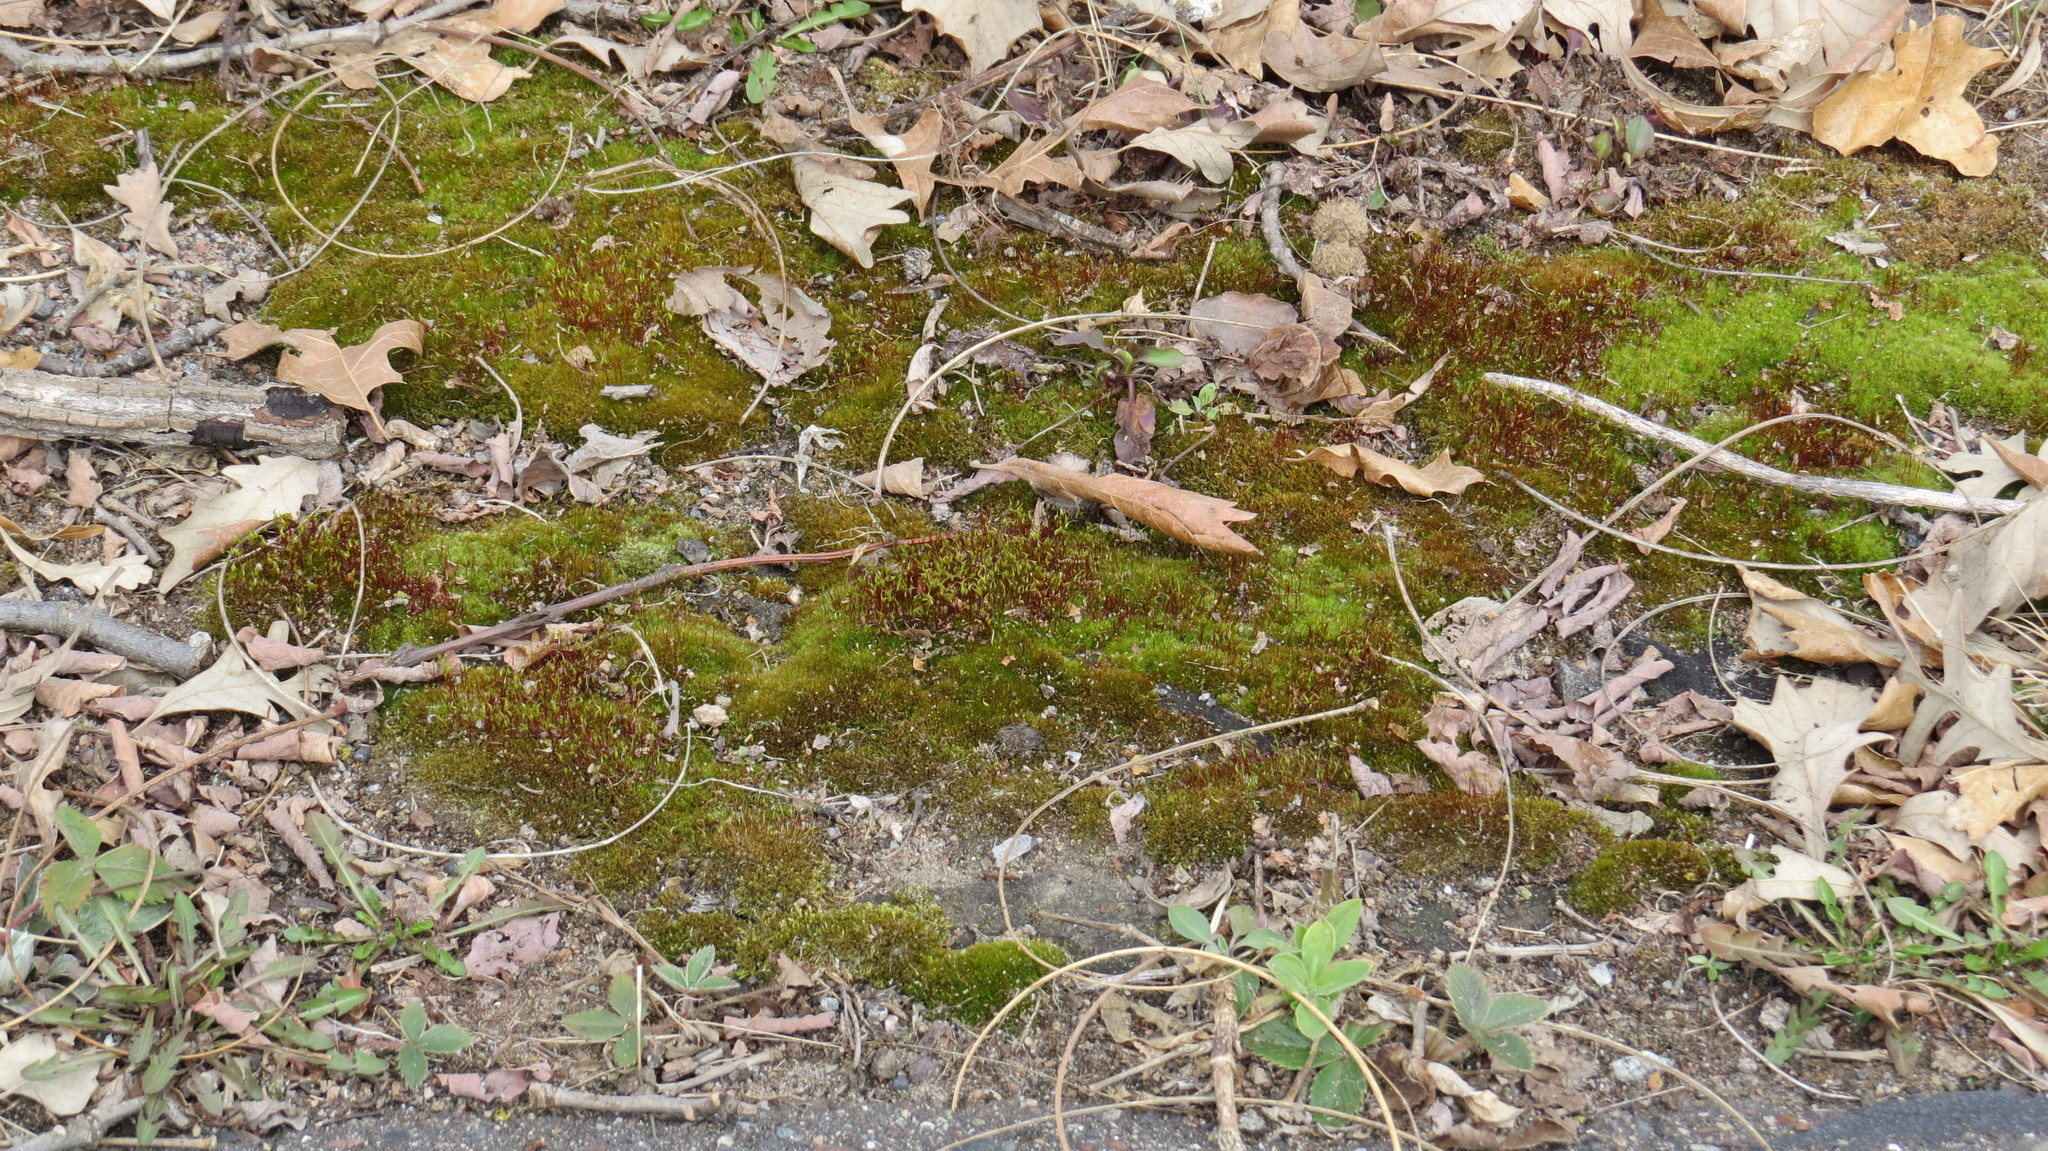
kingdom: Plantae
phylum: Bryophyta
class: Bryopsida
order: Dicranales
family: Ditrichaceae
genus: Ceratodon
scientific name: Ceratodon purpureus
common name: Redshank
